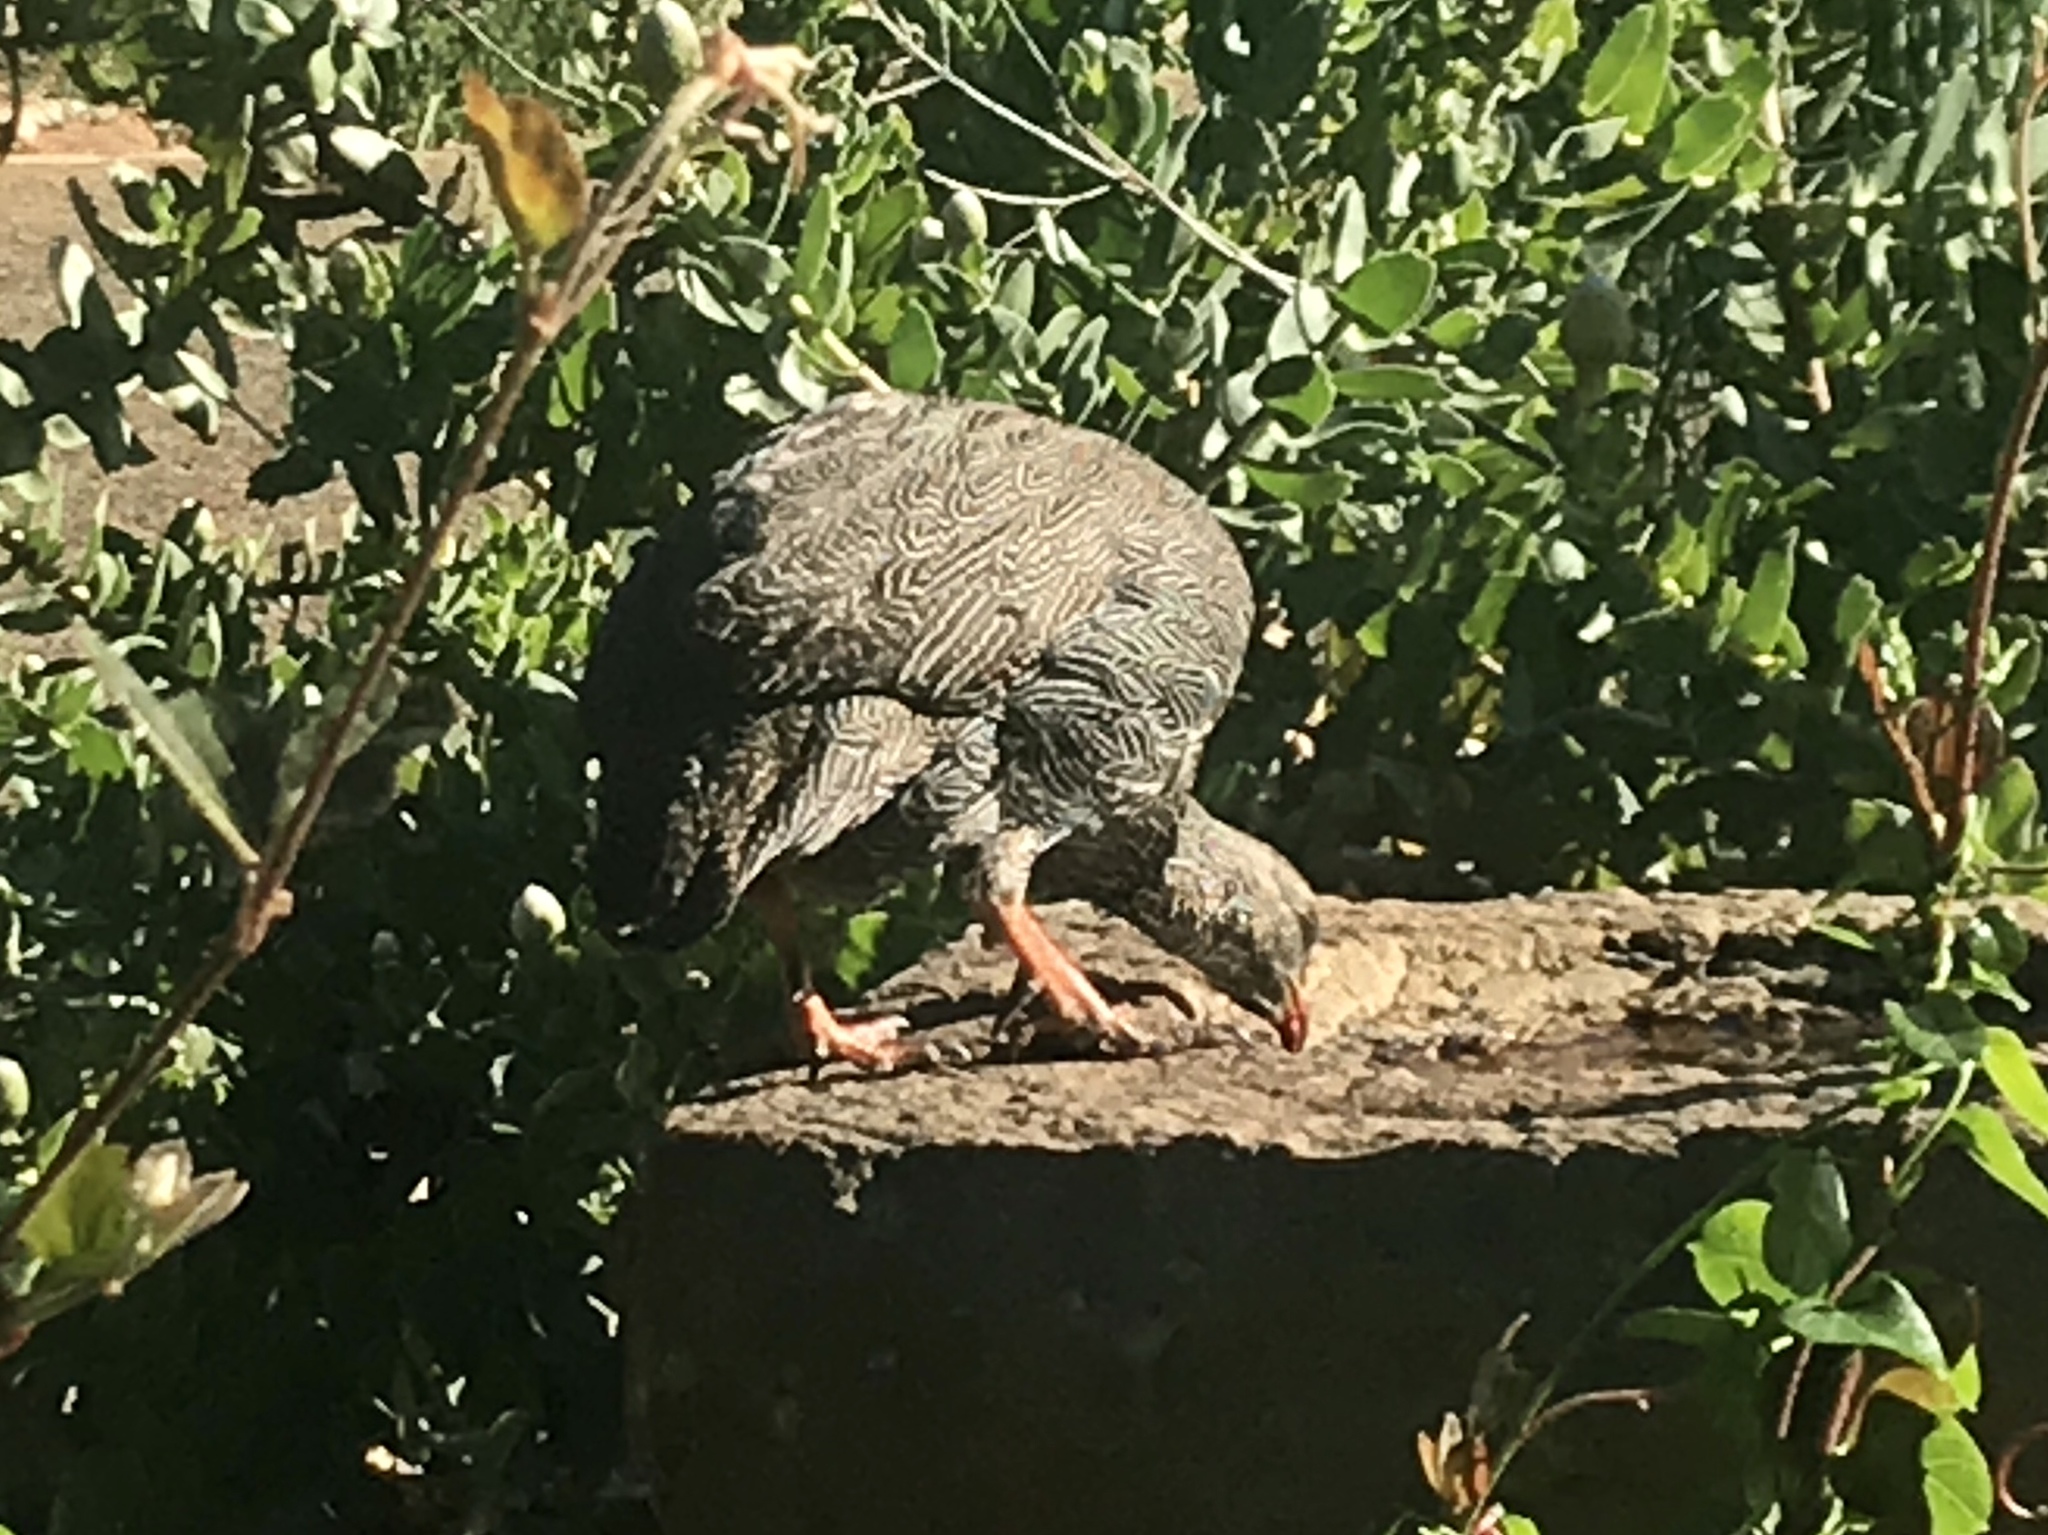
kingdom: Animalia
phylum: Chordata
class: Aves
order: Galliformes
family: Phasianidae
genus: Pternistis
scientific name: Pternistis capensis
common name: Cape spurfowl
